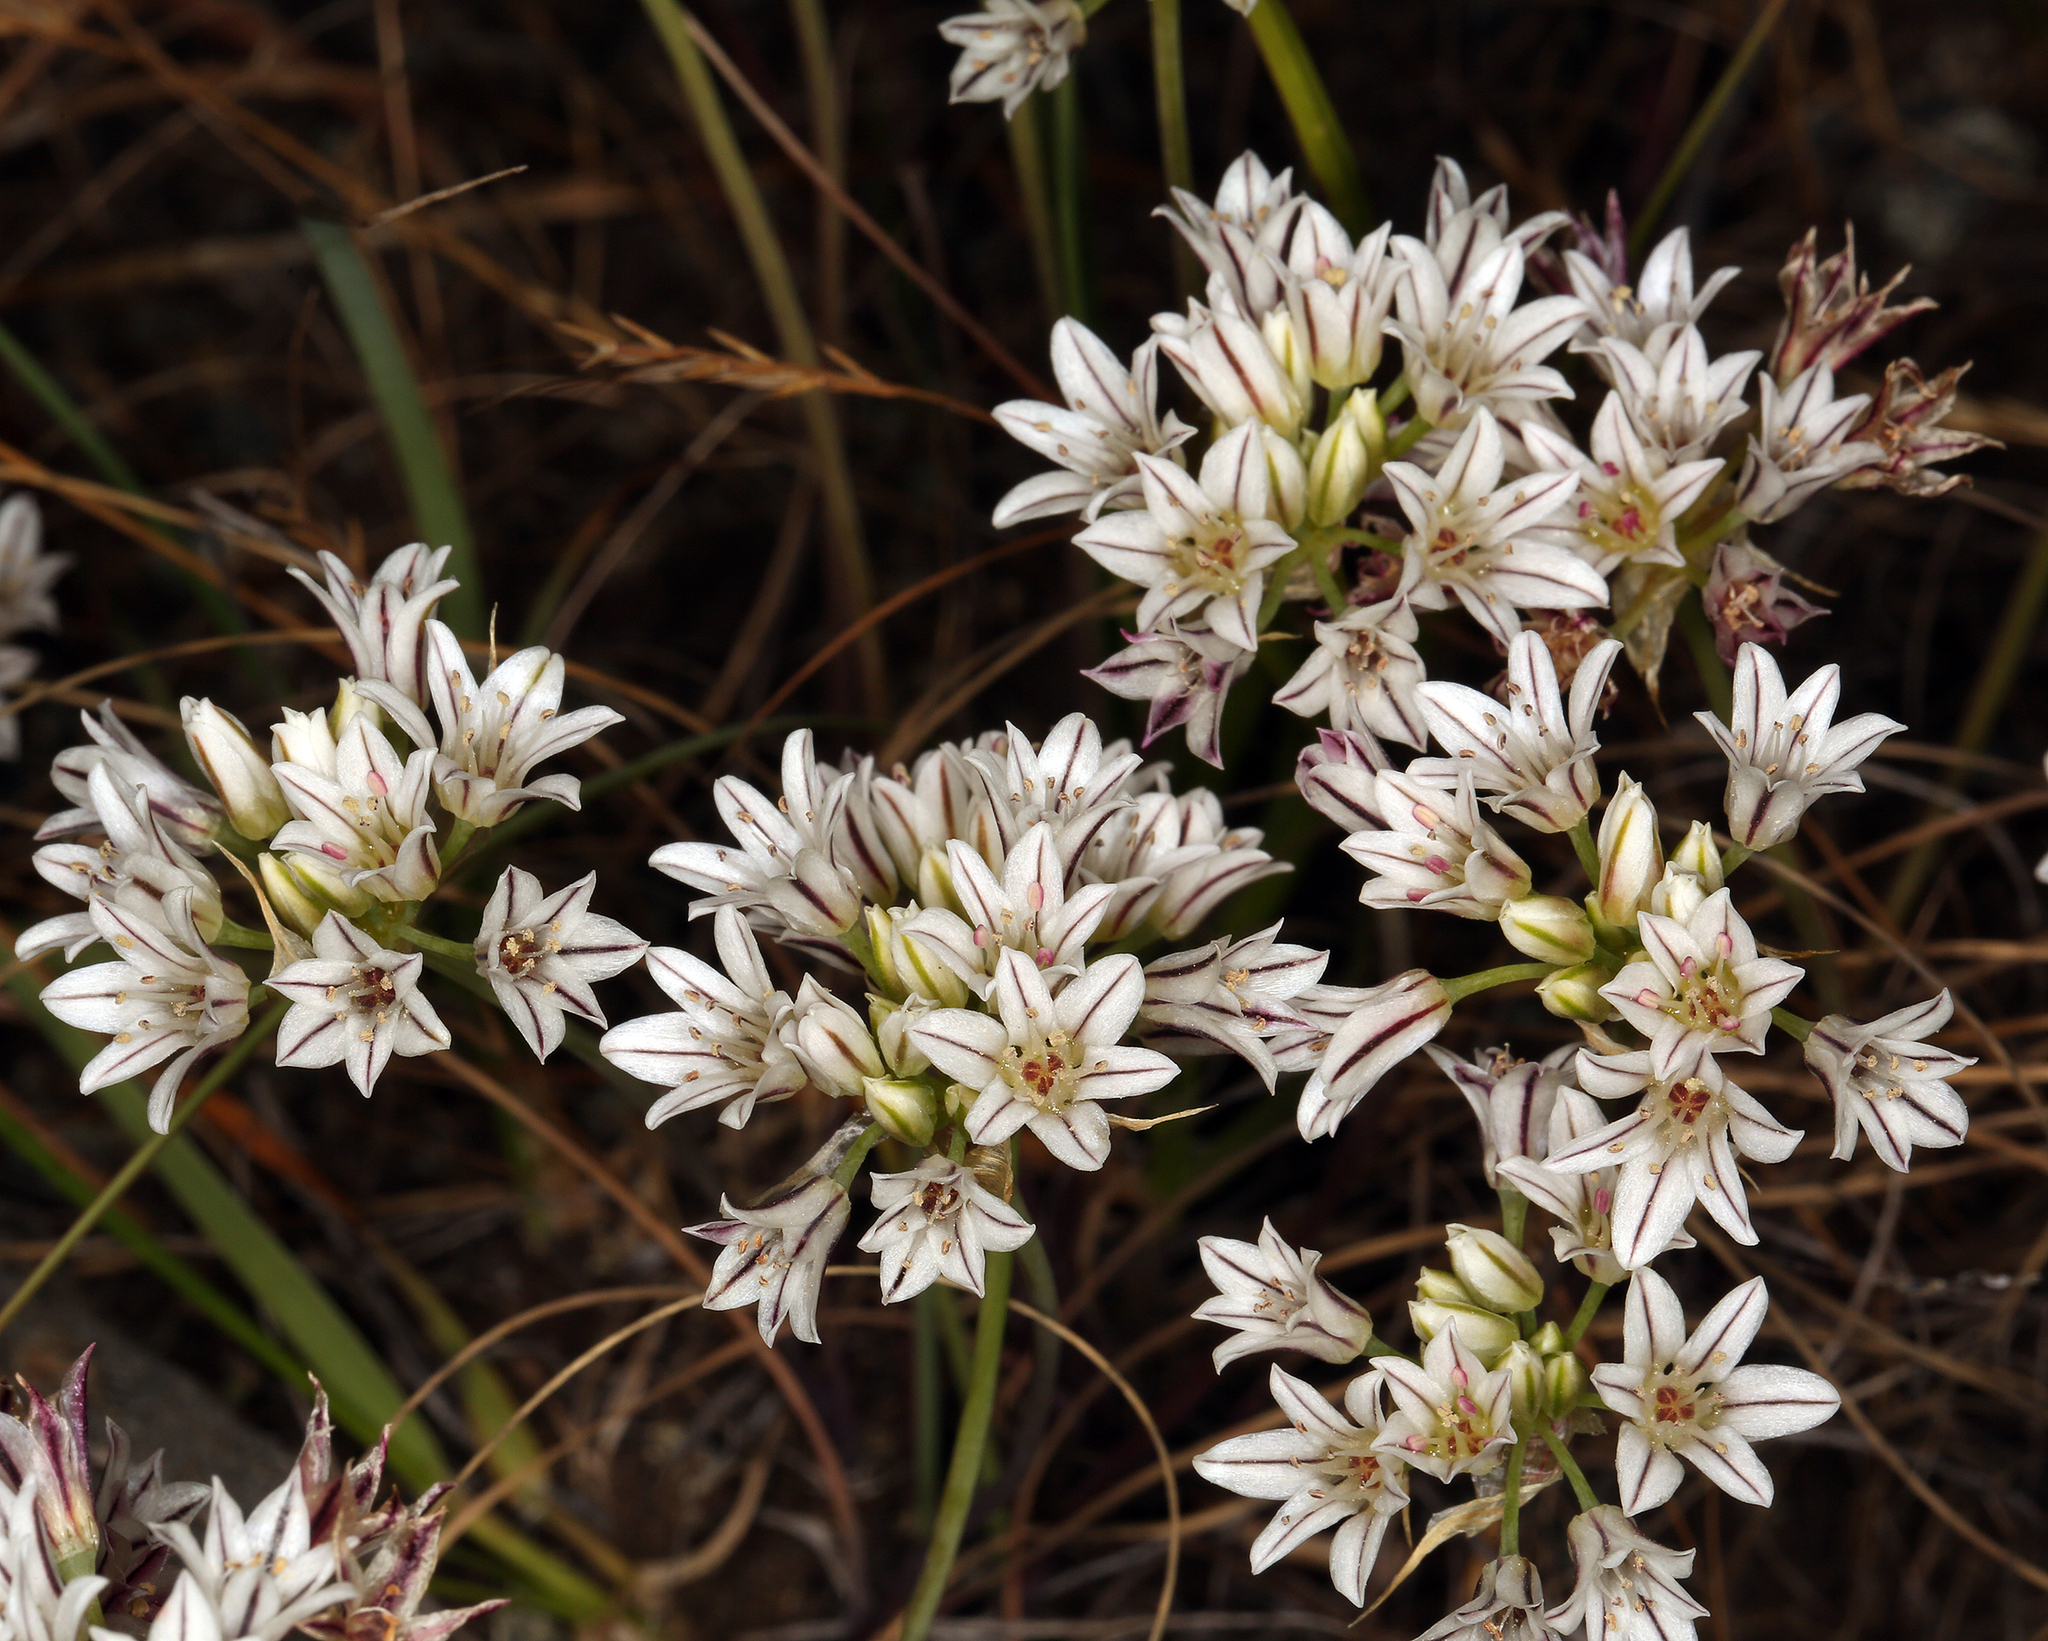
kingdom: Plantae
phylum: Tracheophyta
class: Liliopsida
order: Asparagales
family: Amaryllidaceae
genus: Allium
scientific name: Allium lacunosum
